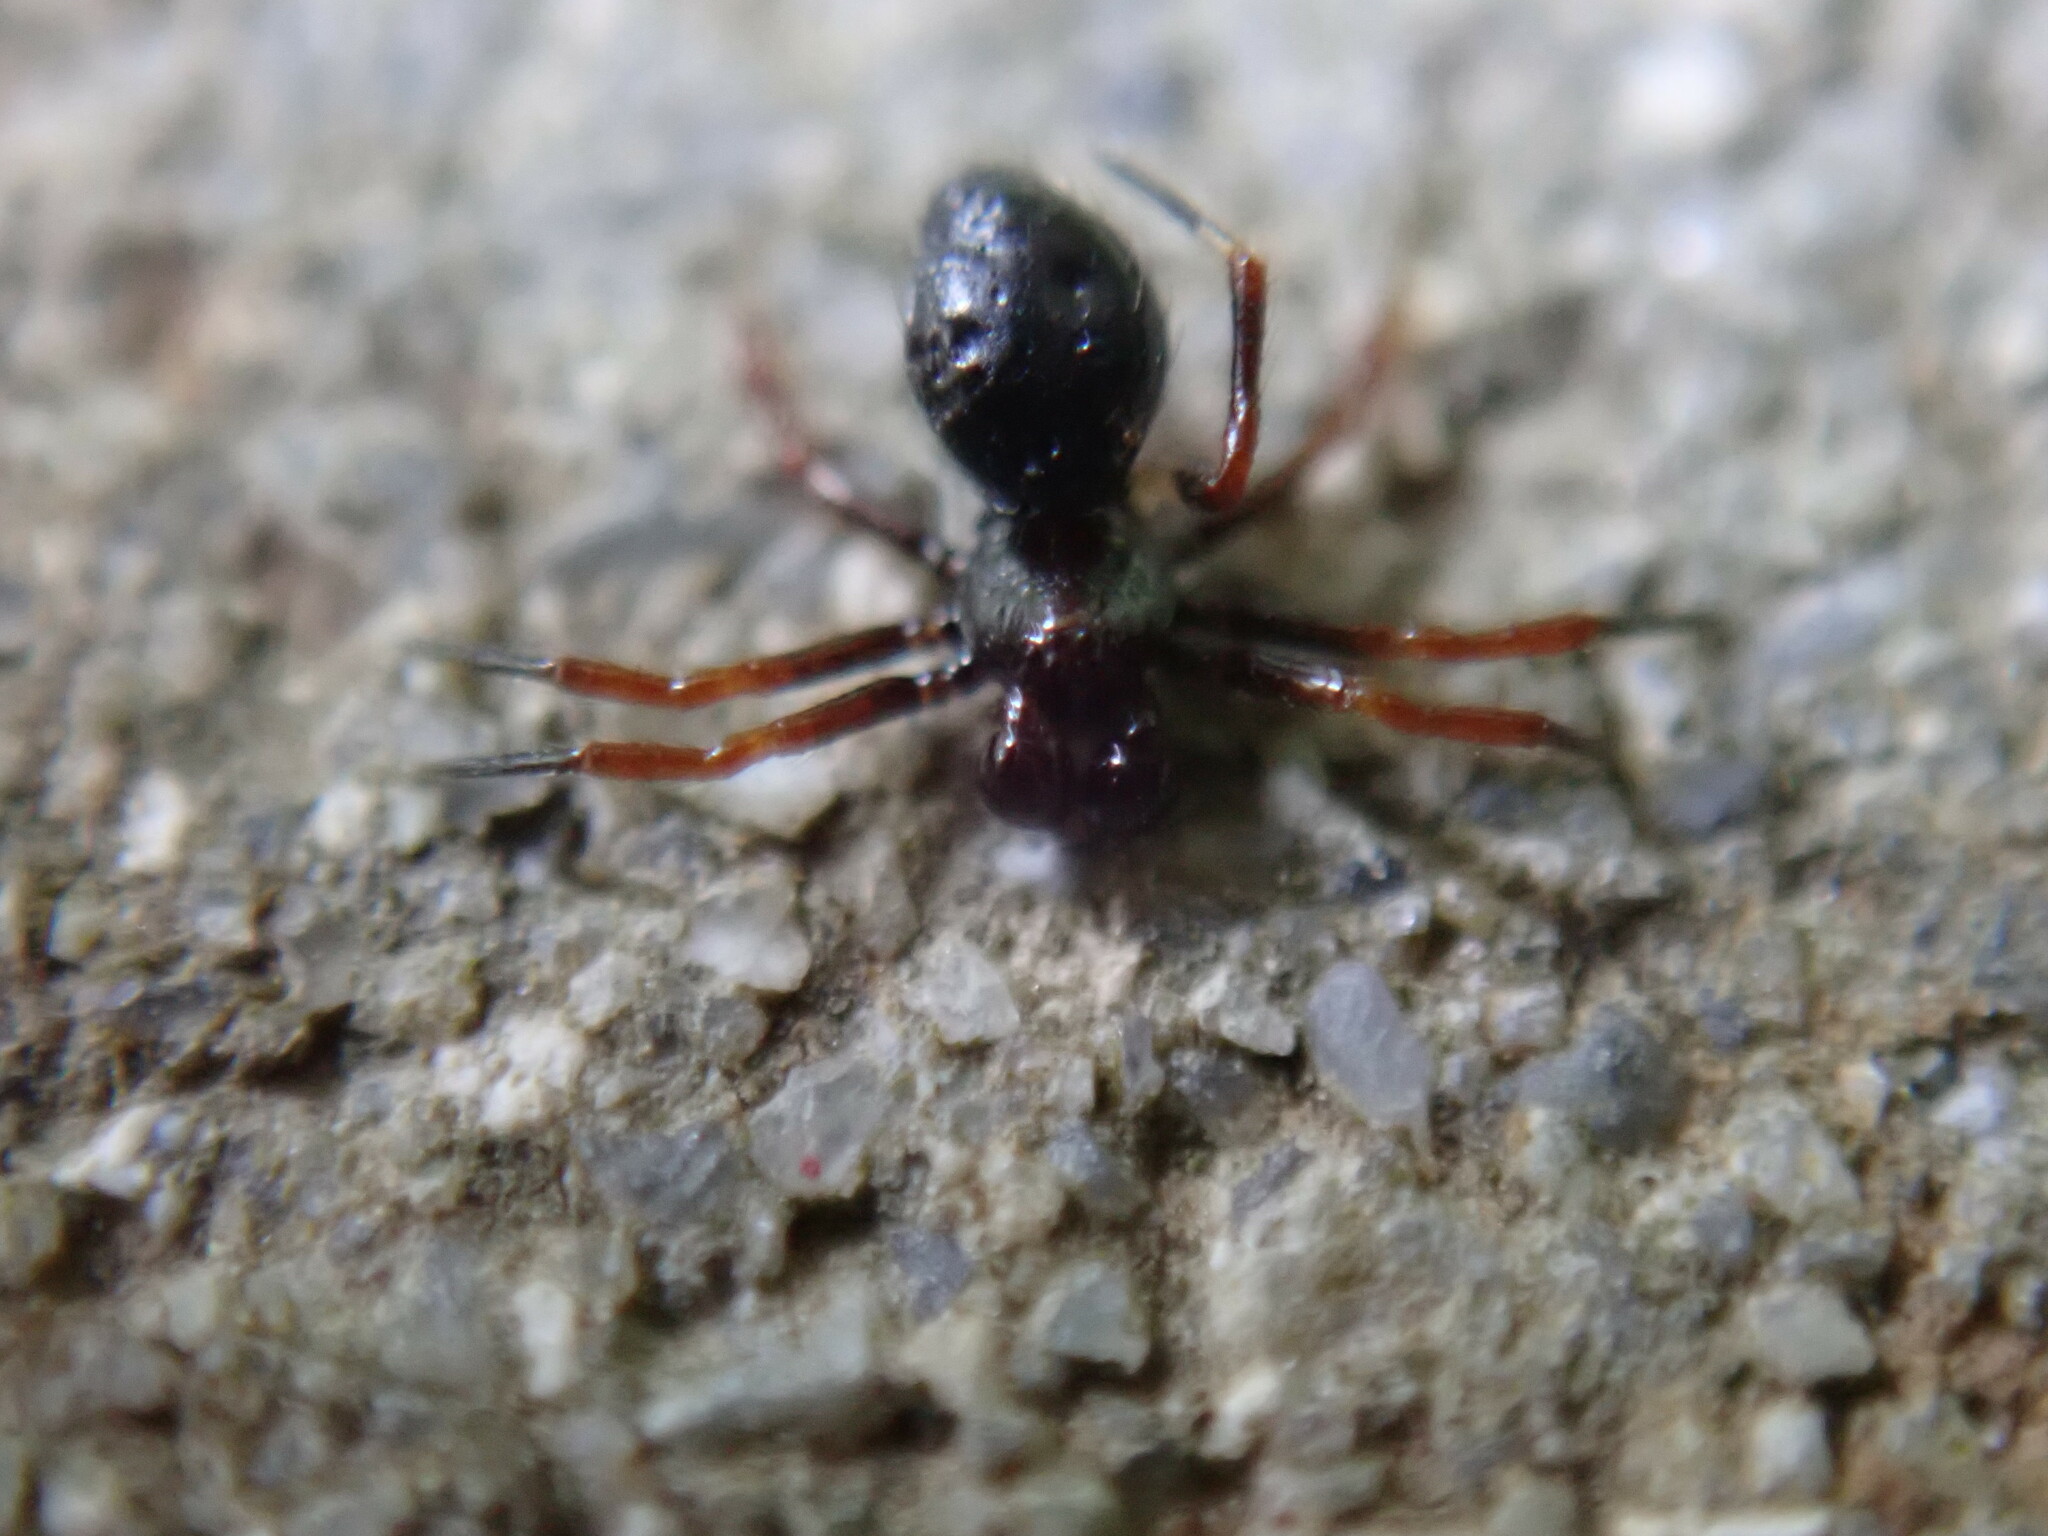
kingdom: Animalia
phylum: Arthropoda
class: Arachnida
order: Araneae
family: Theridiidae
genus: Euryopis
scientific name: Euryopis episinoides
